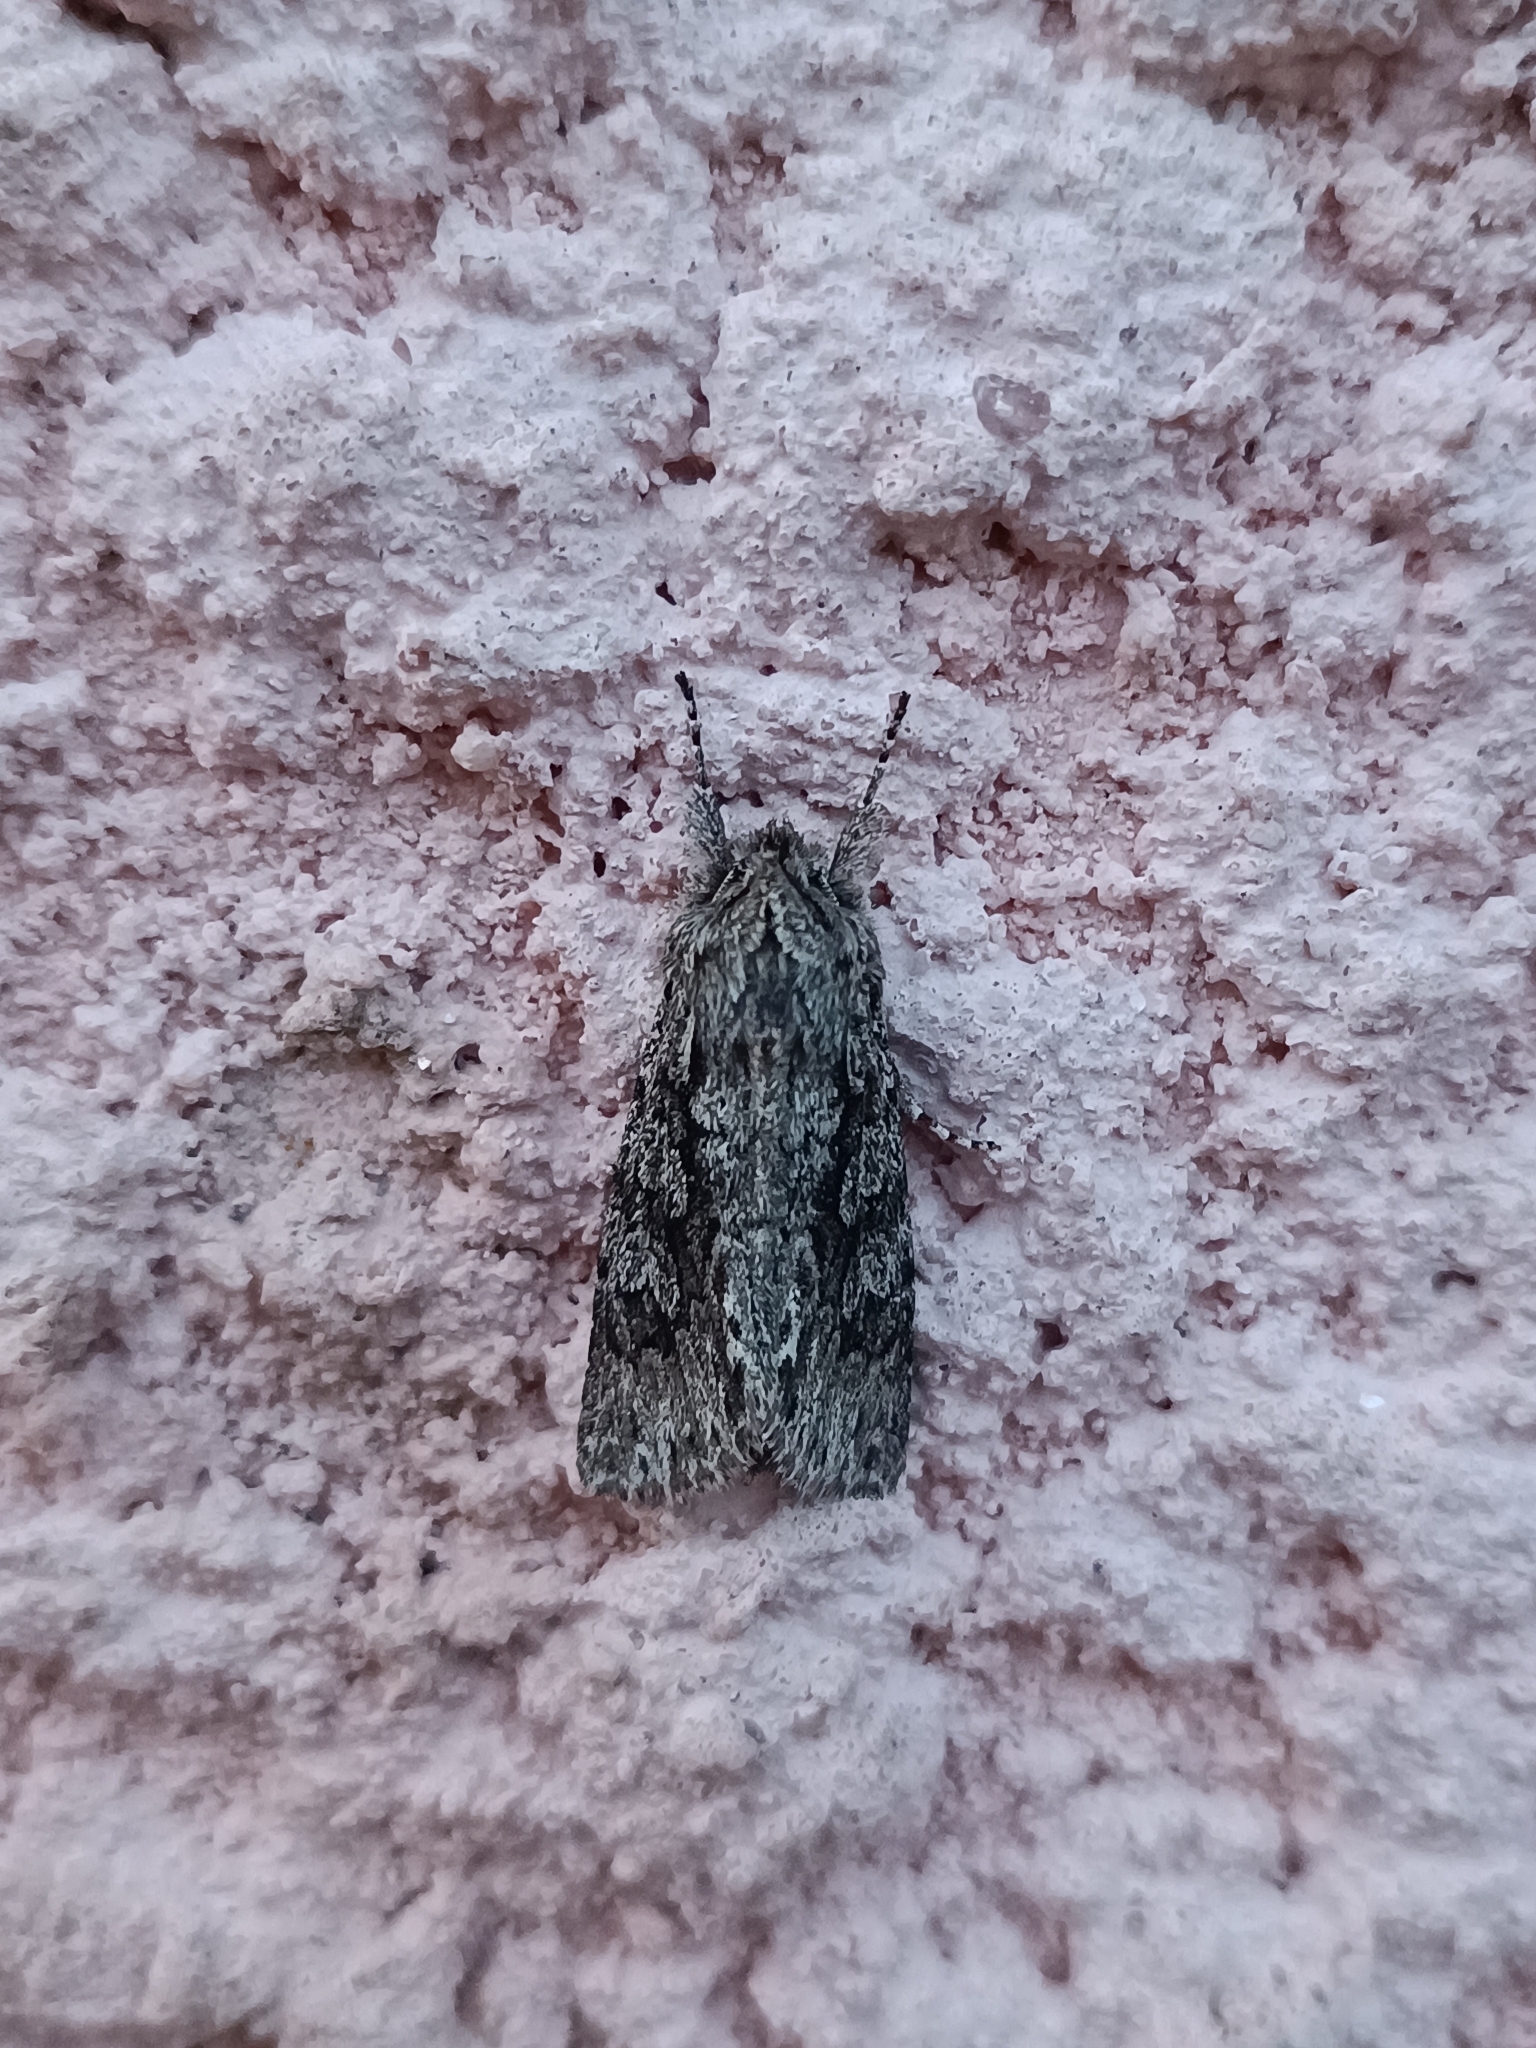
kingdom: Animalia
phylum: Arthropoda
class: Insecta
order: Lepidoptera
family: Noctuidae
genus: Xylocampa
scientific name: Xylocampa areola
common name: Early grey
